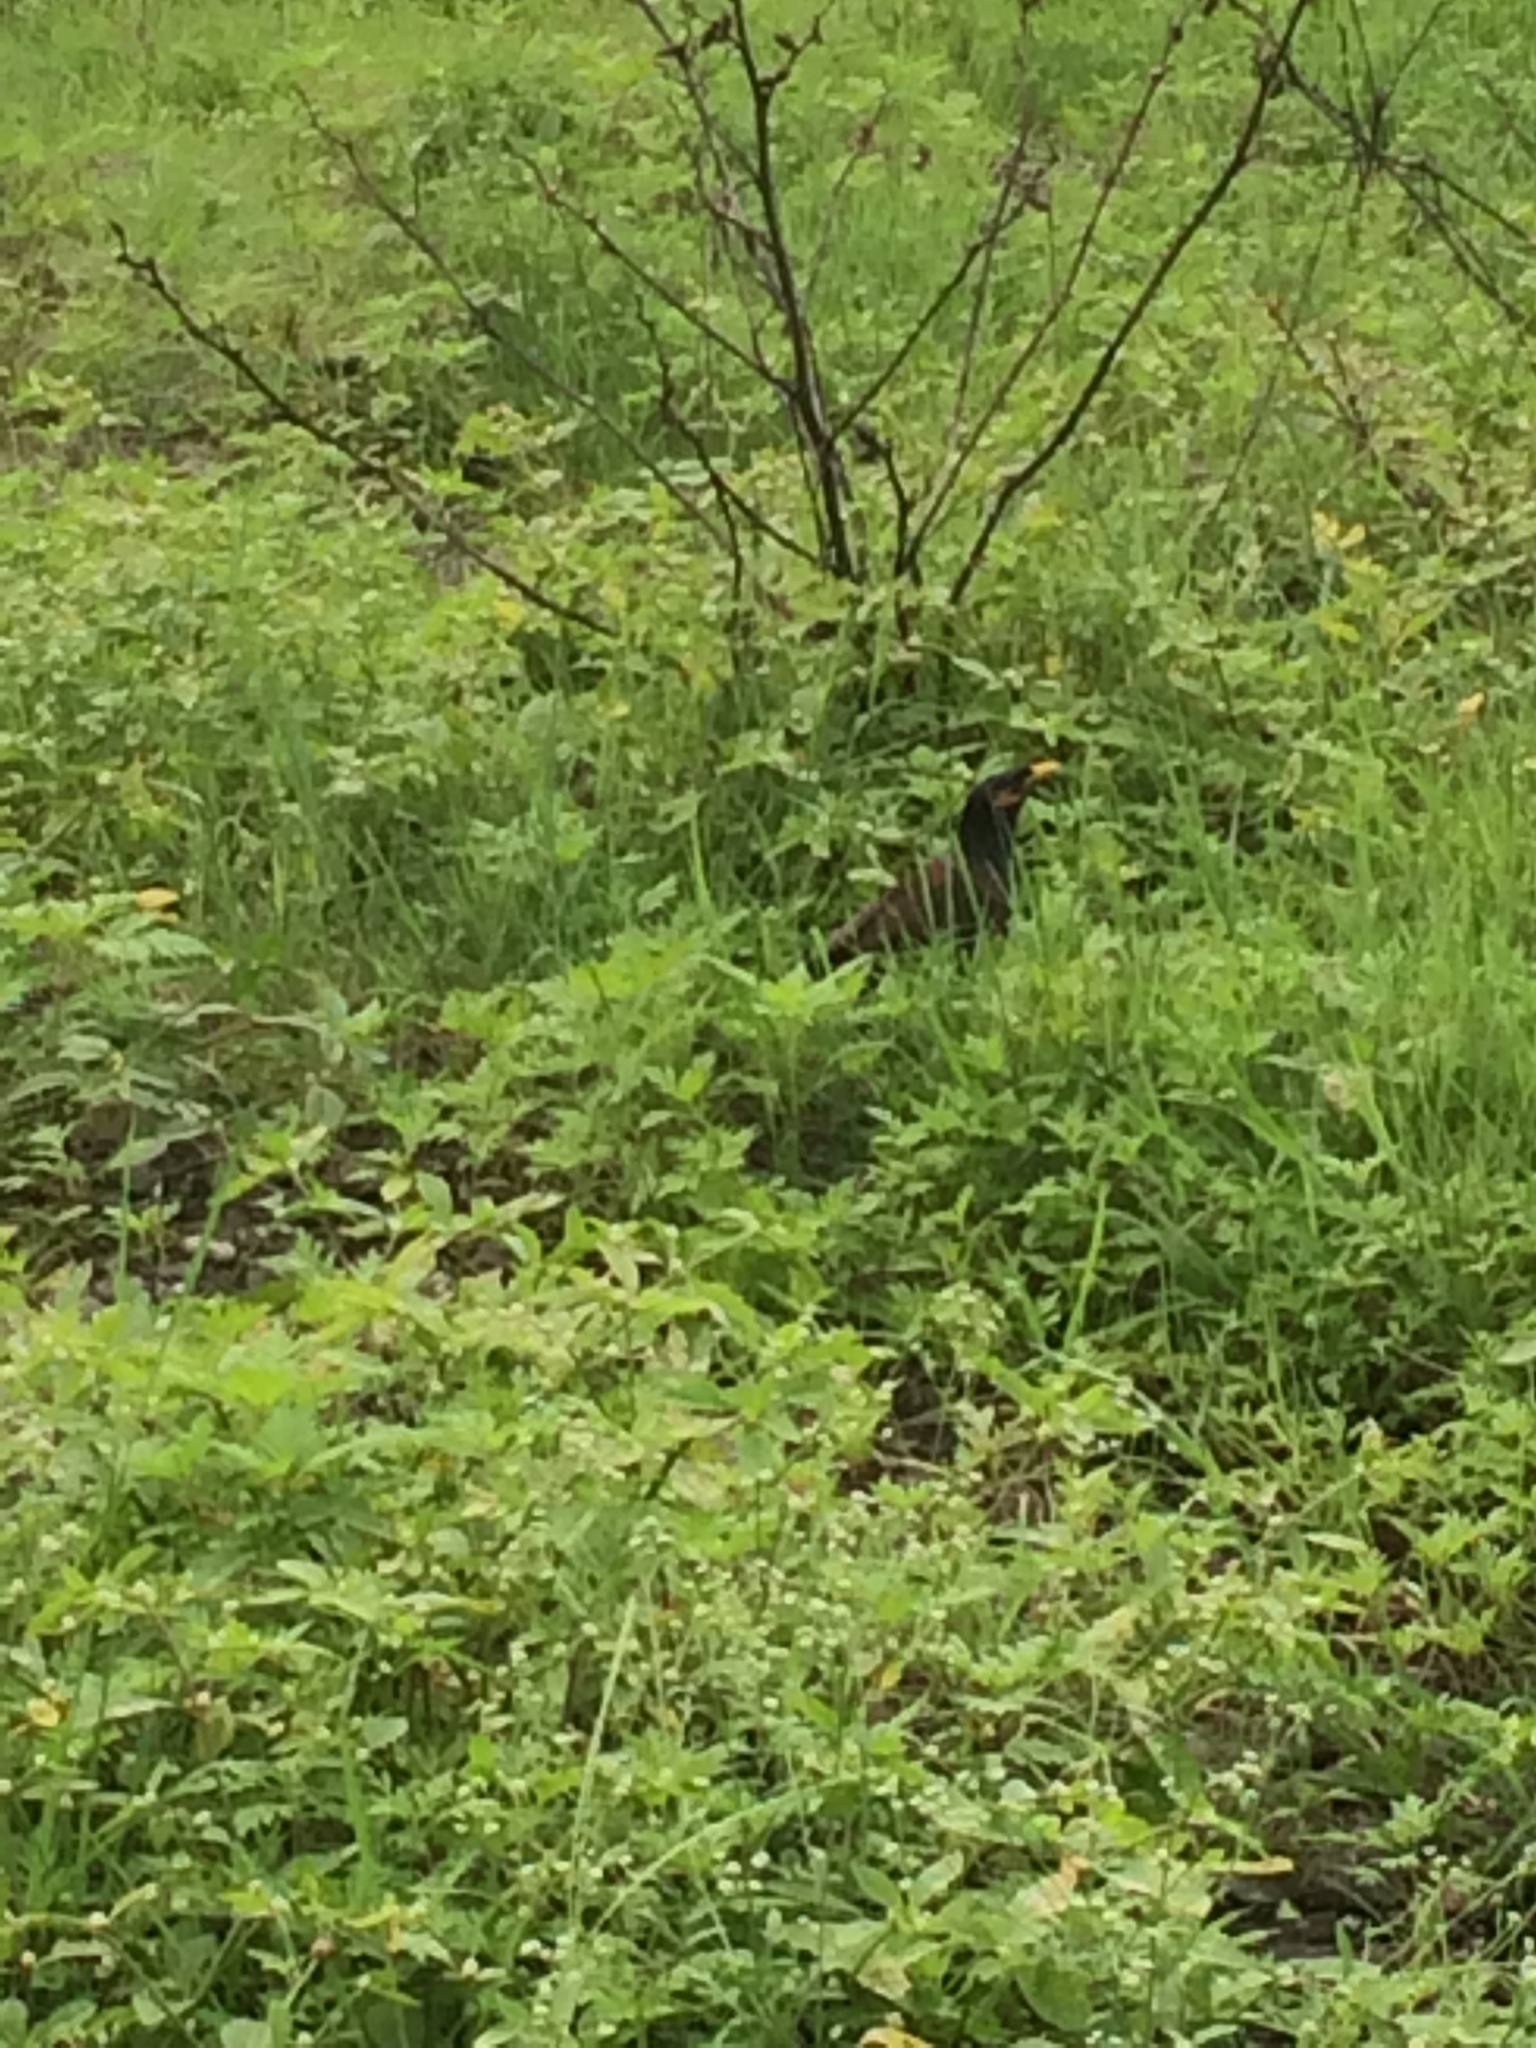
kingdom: Animalia
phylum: Chordata
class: Aves
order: Passeriformes
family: Sturnidae
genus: Acridotheres
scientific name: Acridotheres tristis
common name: Common myna
